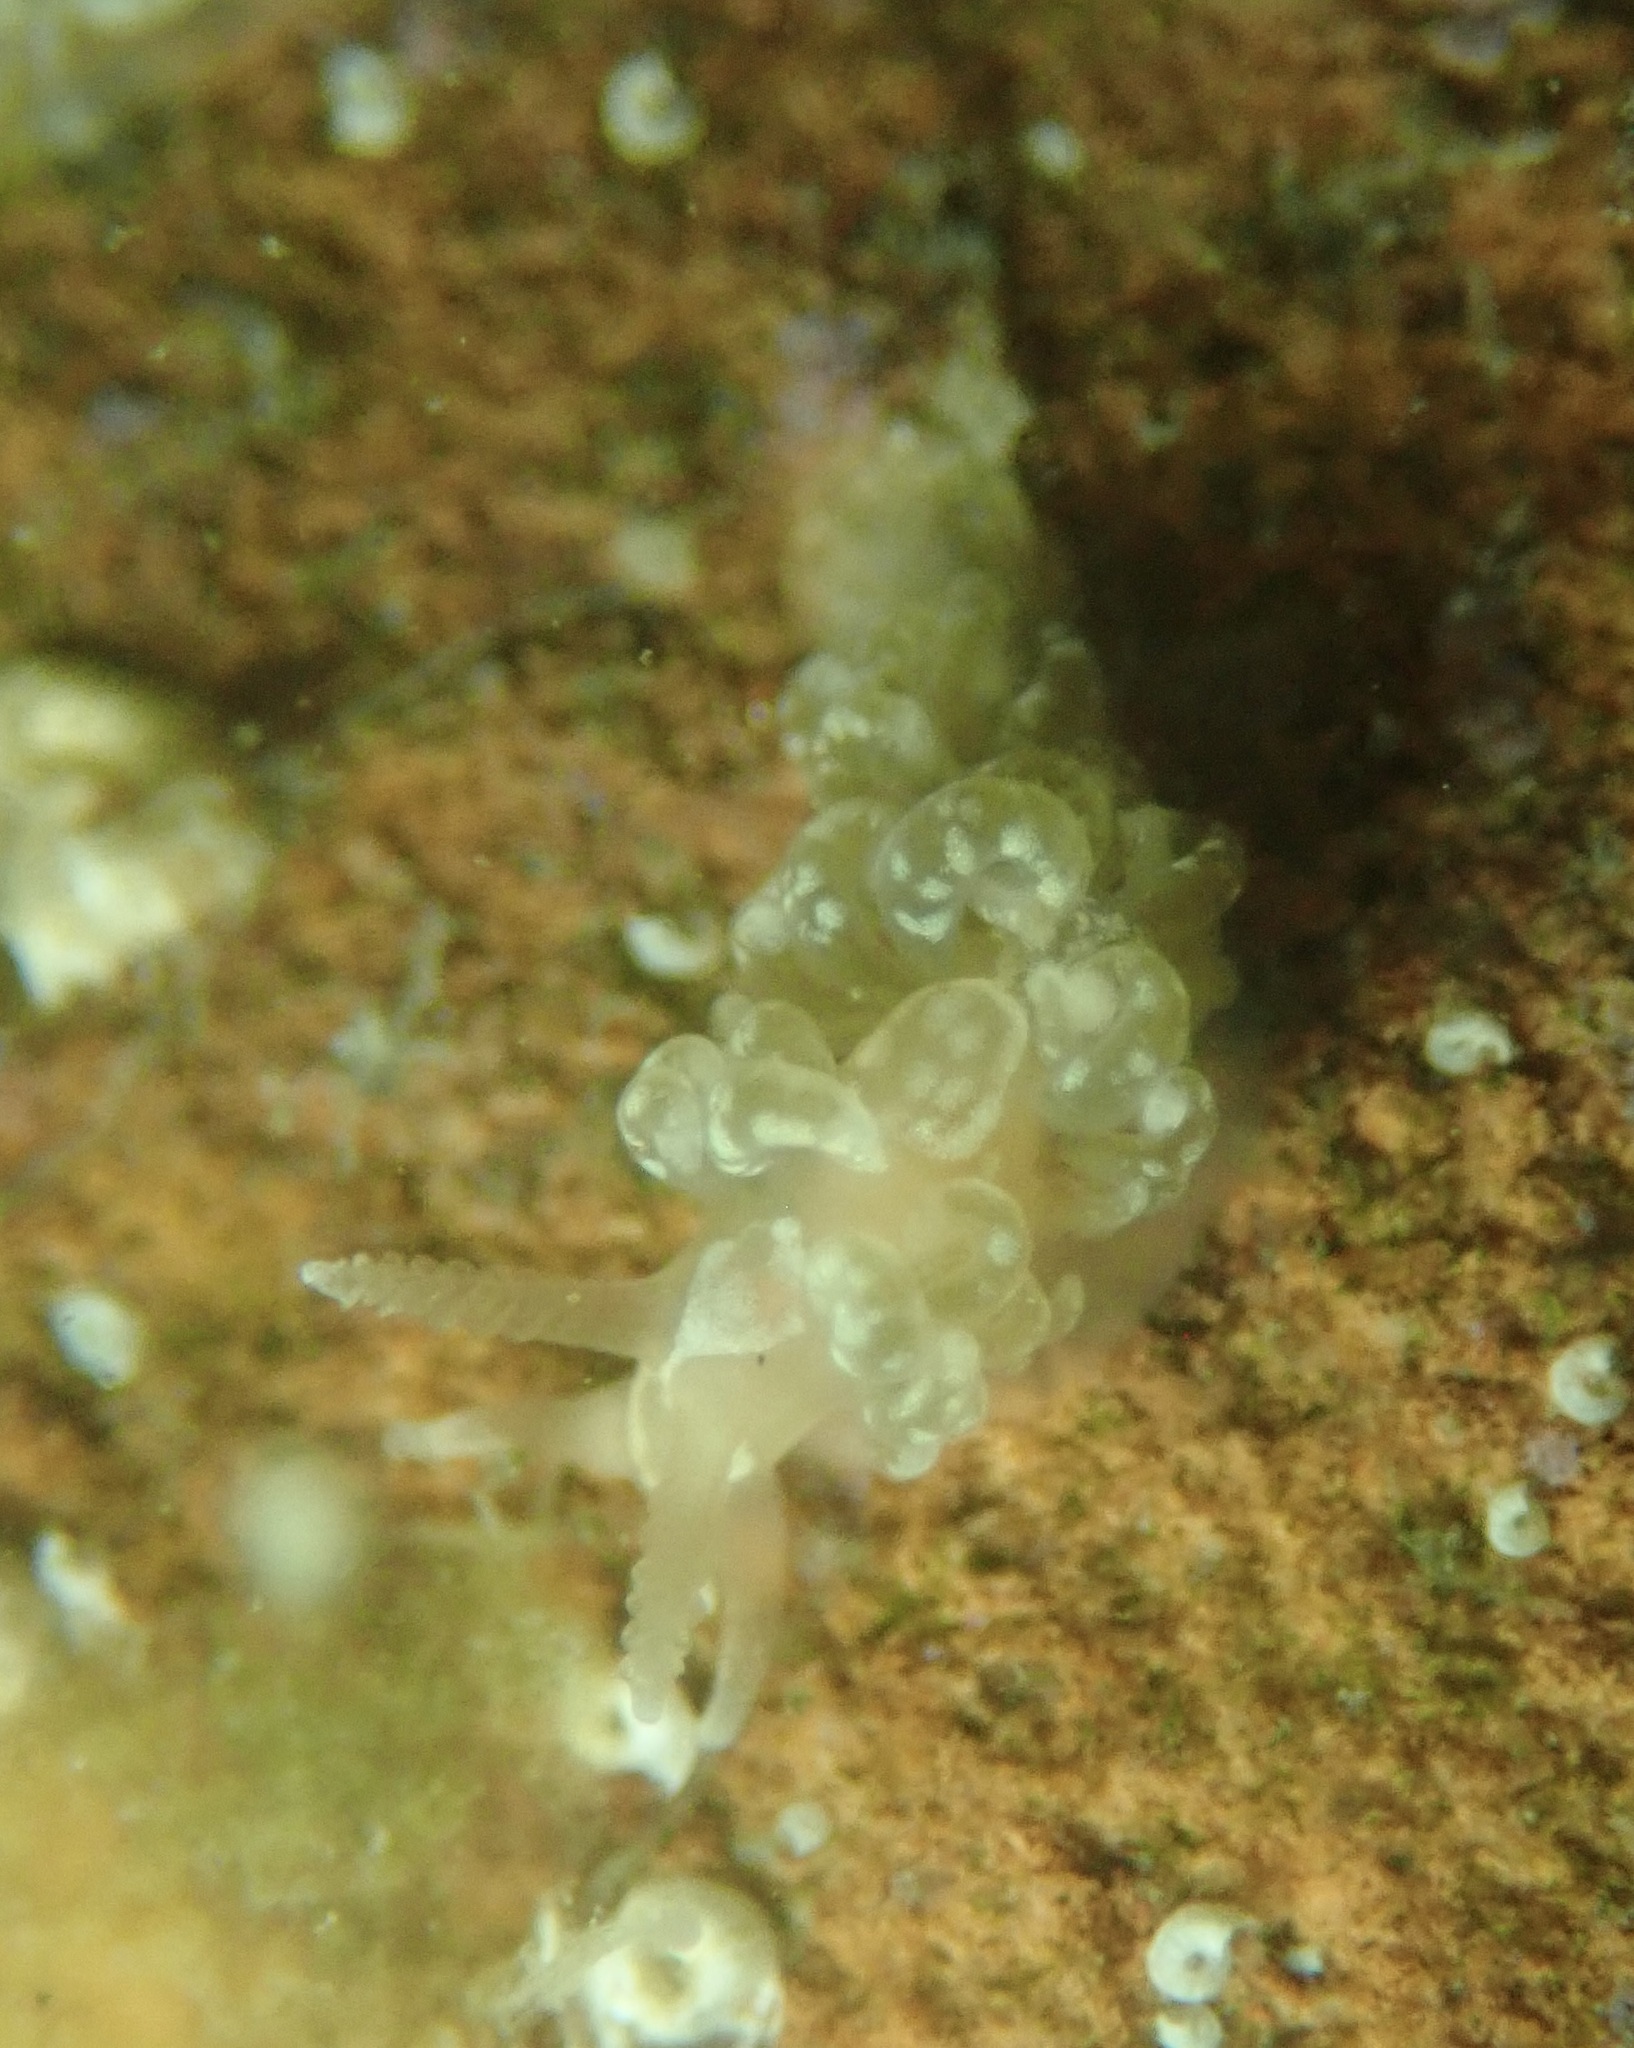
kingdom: Animalia
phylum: Mollusca
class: Gastropoda
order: Nudibranchia
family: Aeolidiidae
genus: Spurilla
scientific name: Spurilla braziliana
